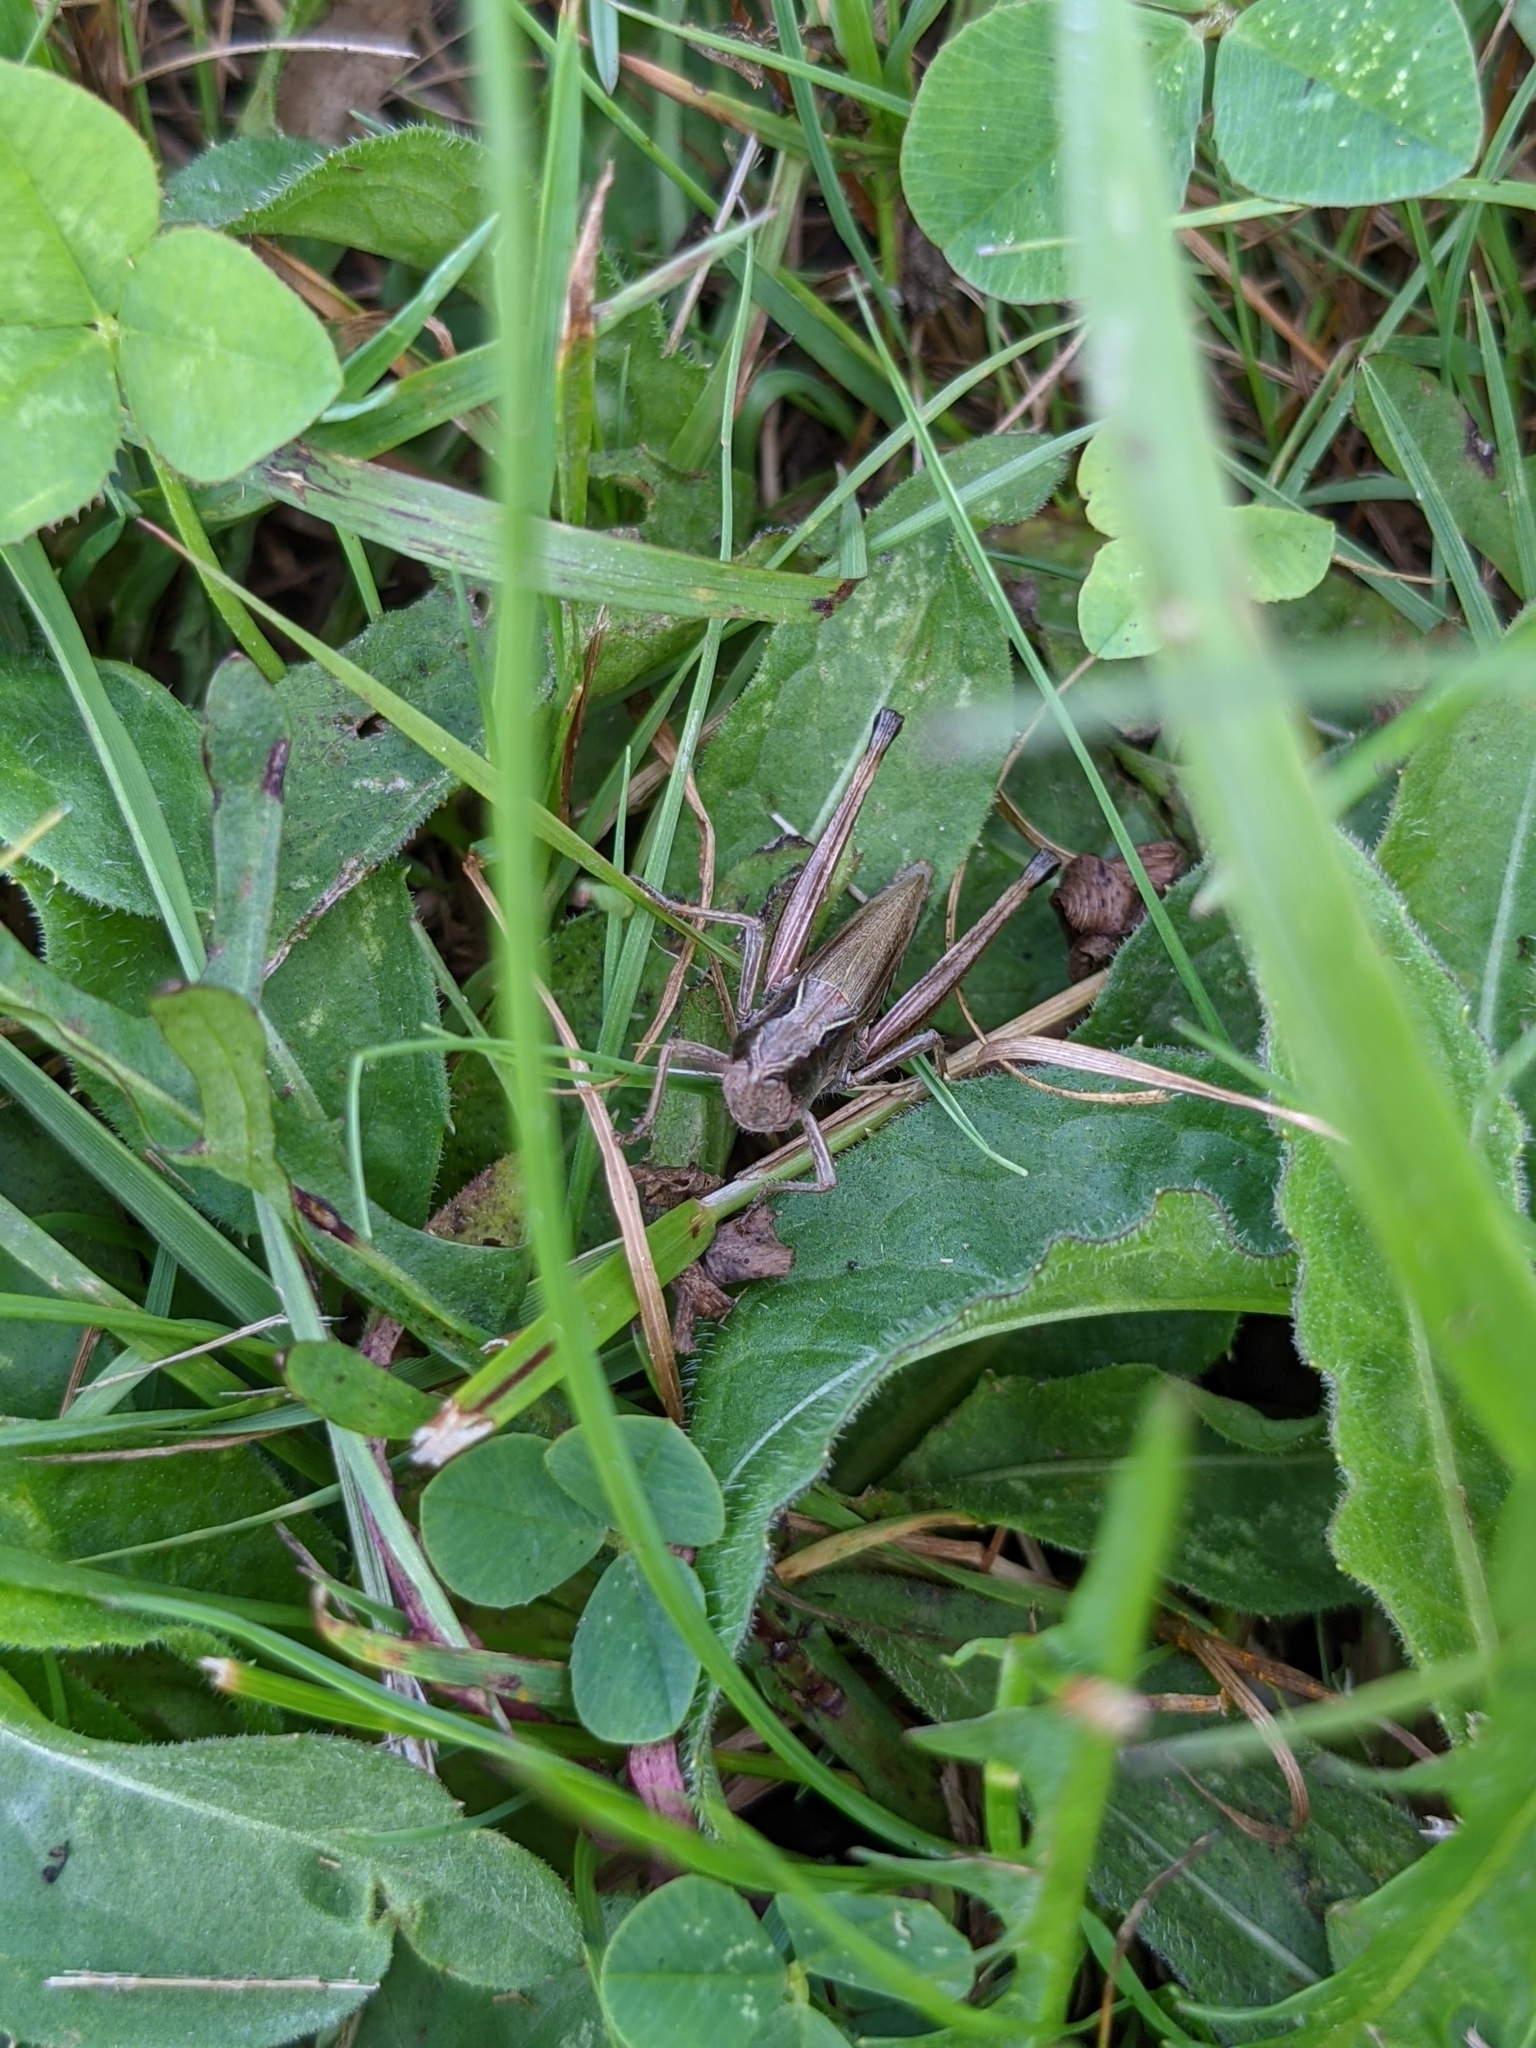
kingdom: Animalia
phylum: Arthropoda
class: Insecta
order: Orthoptera
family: Acrididae
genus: Pseudochorthippus
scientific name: Pseudochorthippus curtipennis
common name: Marsh meadow grasshopper
